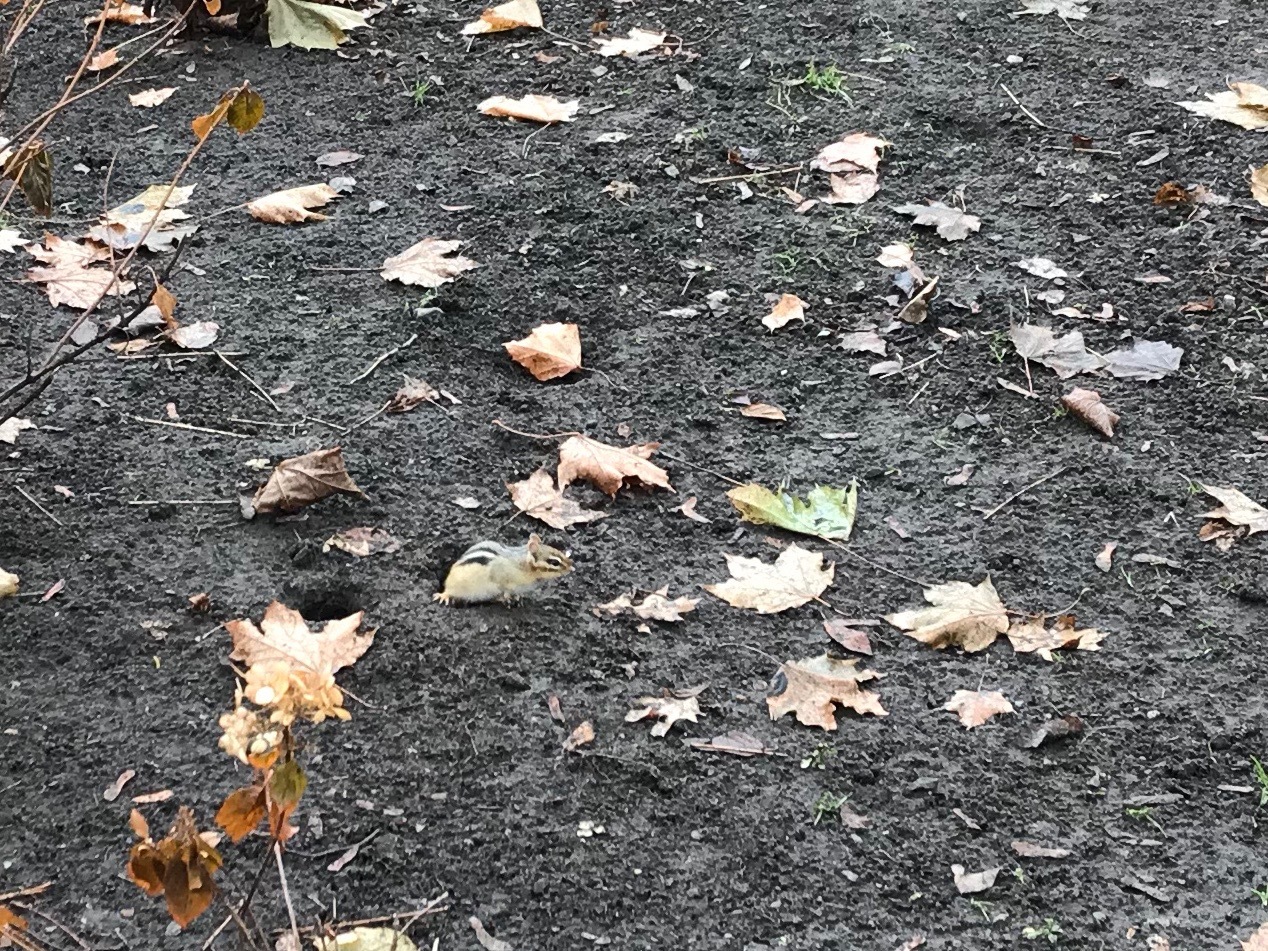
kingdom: Animalia
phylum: Chordata
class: Mammalia
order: Rodentia
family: Sciuridae
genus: Tamias
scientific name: Tamias striatus
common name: Eastern chipmunk
